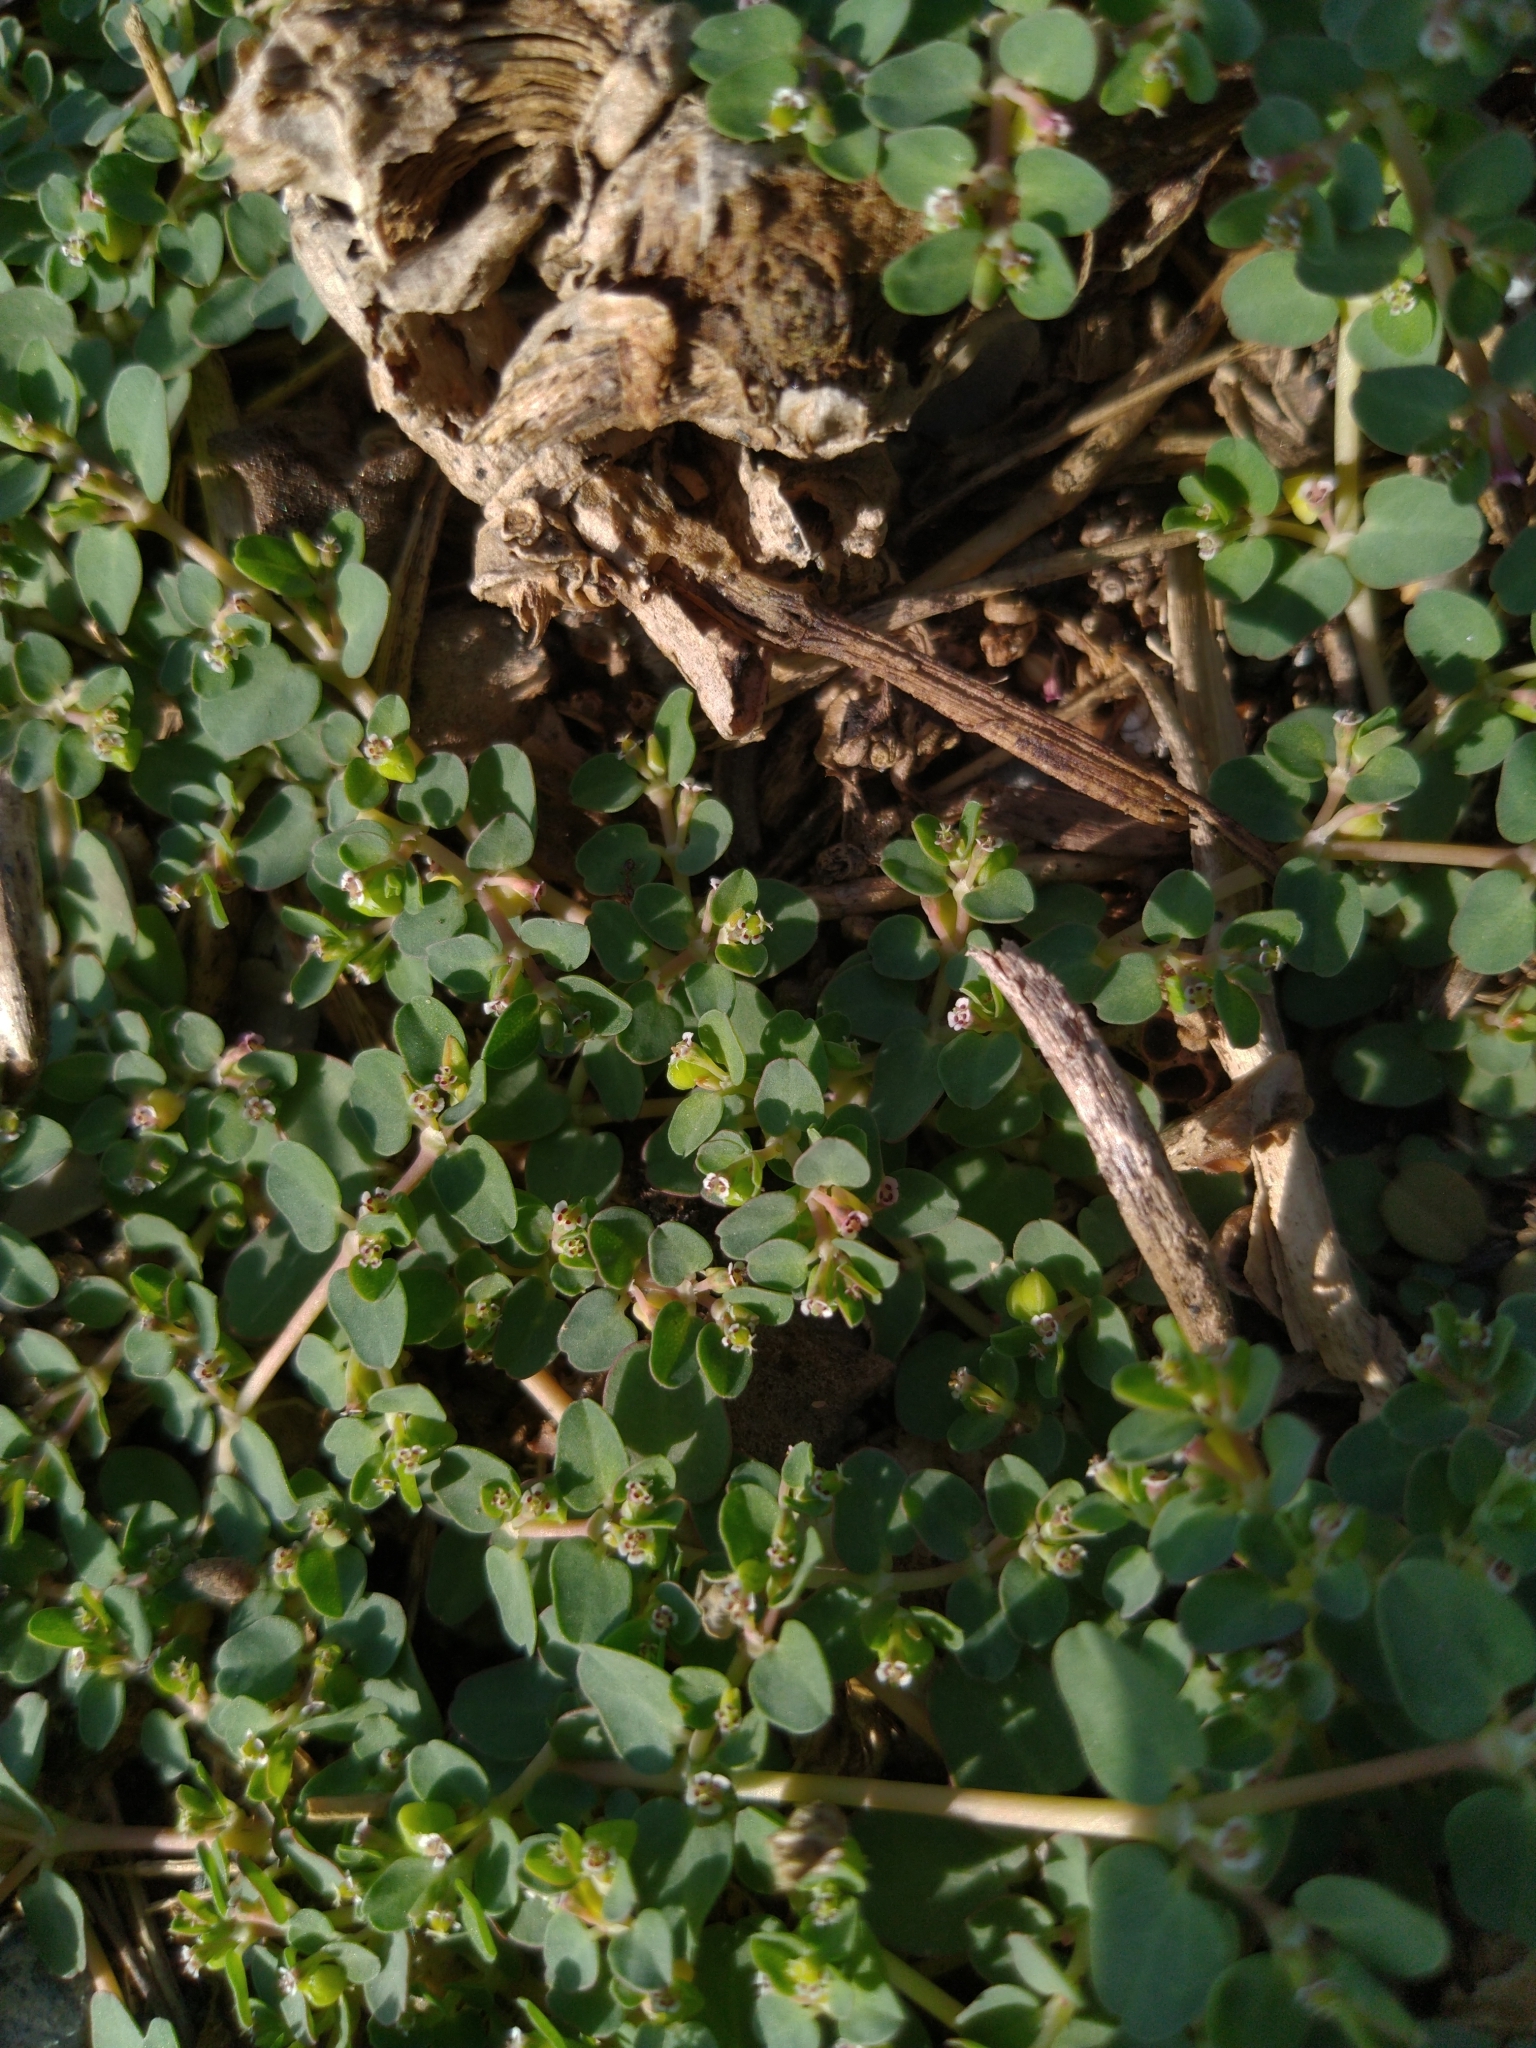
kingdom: Plantae
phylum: Tracheophyta
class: Magnoliopsida
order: Malpighiales
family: Euphorbiaceae
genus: Euphorbia
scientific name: Euphorbia serpens
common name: Matted sandmat
